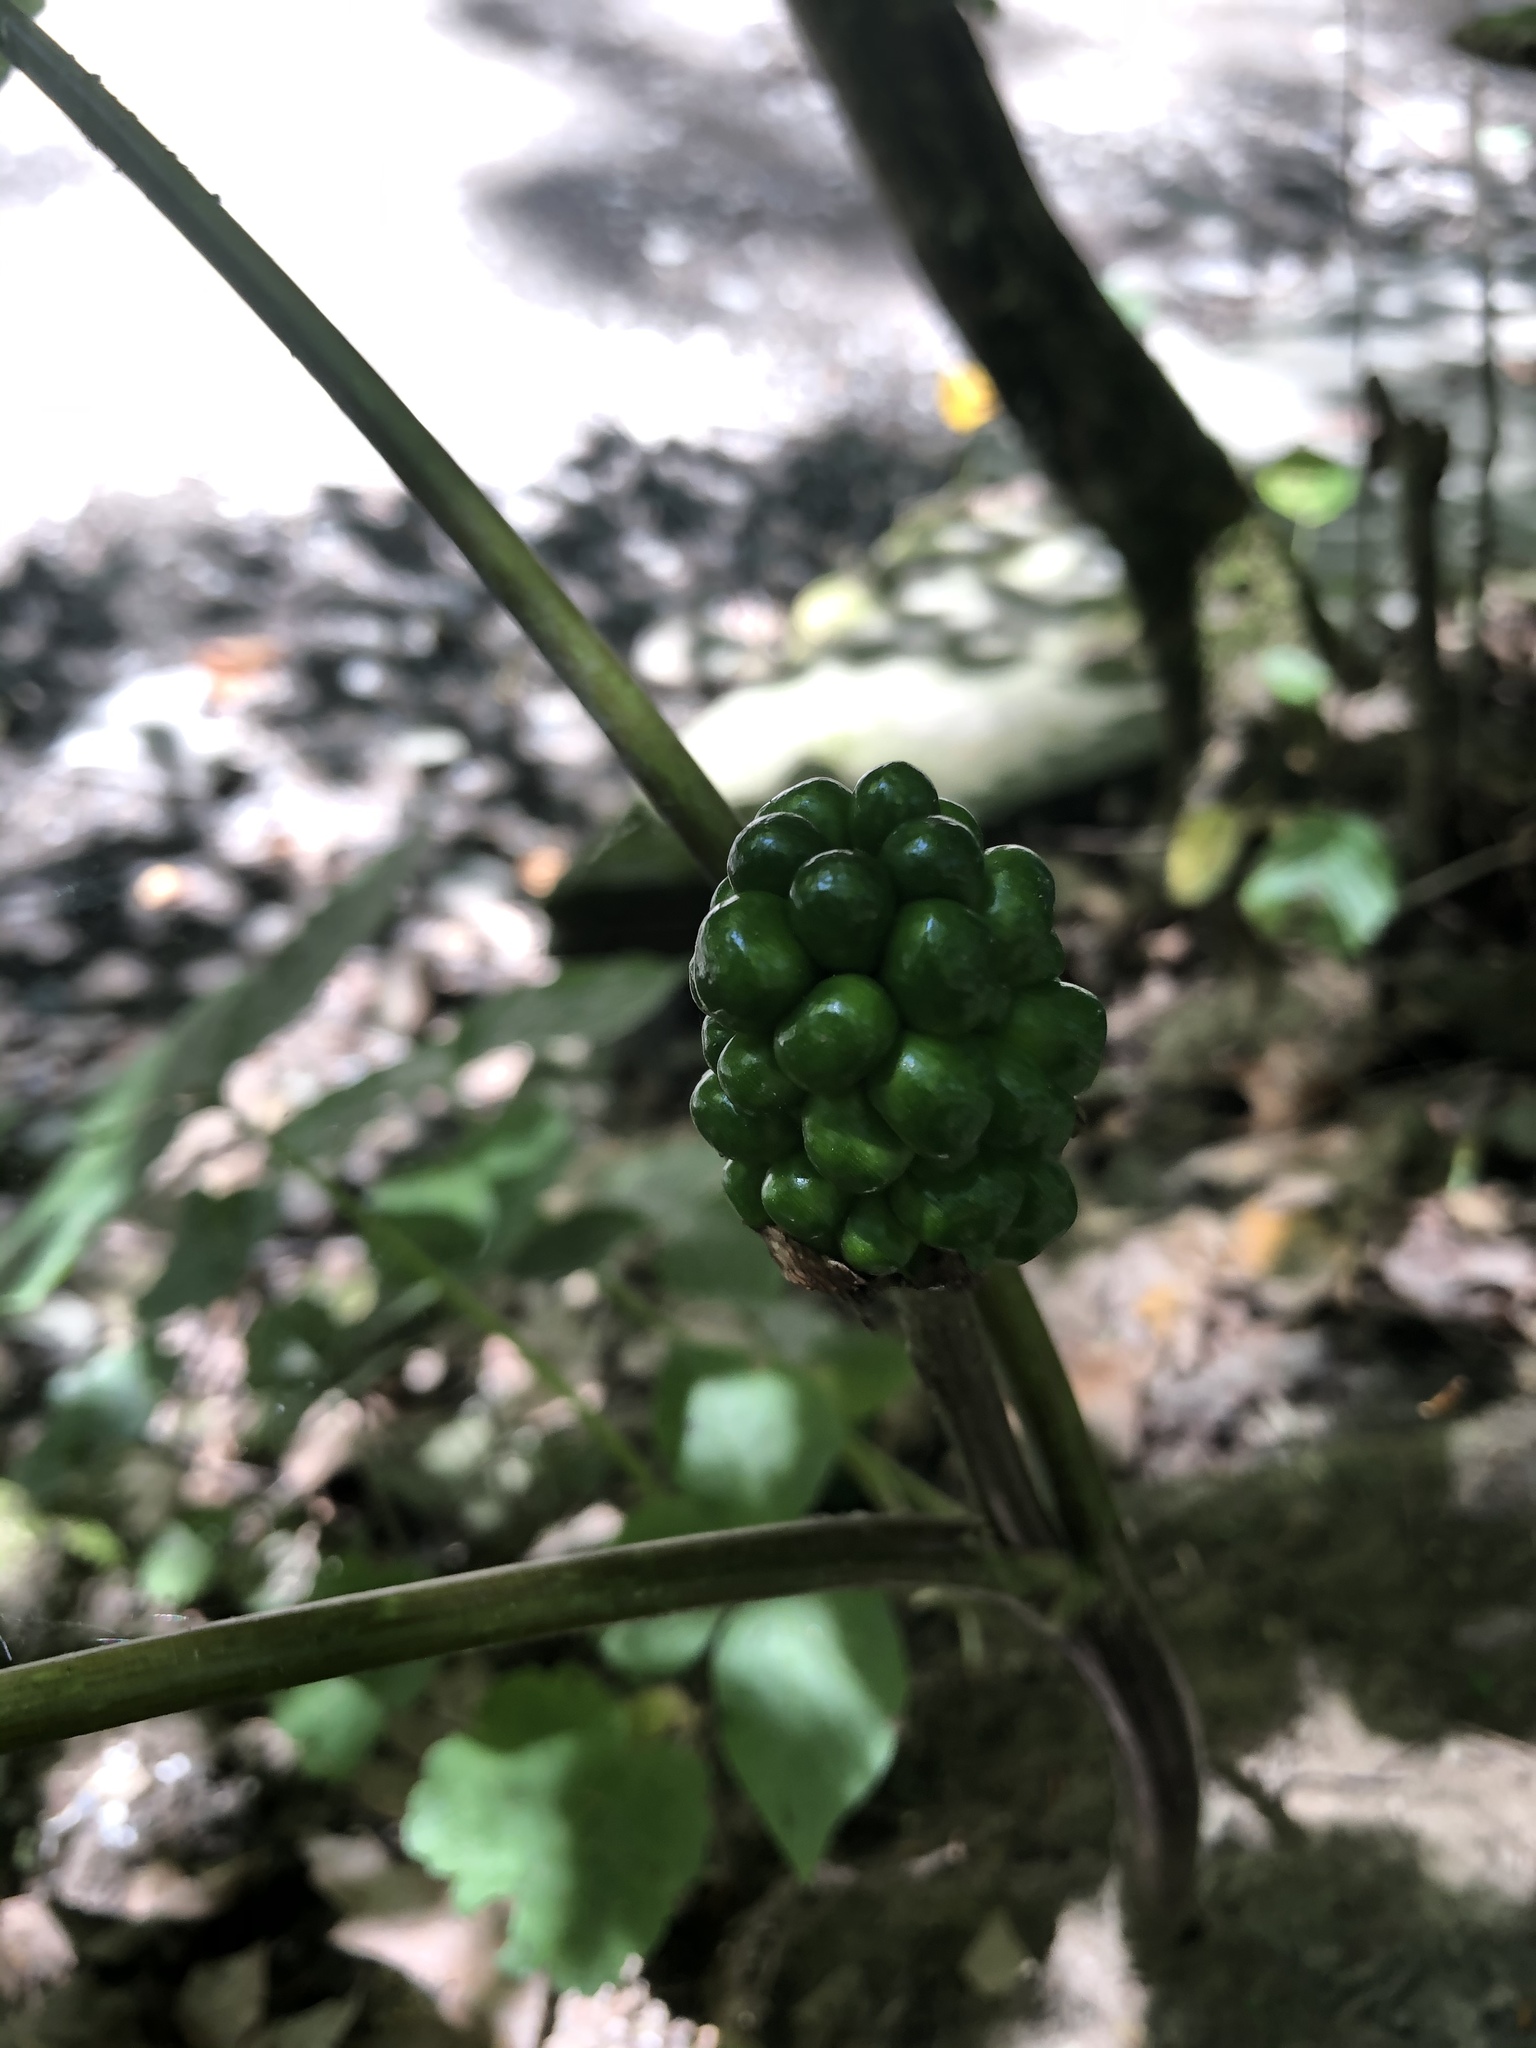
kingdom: Plantae
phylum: Tracheophyta
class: Liliopsida
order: Alismatales
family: Araceae
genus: Arisaema
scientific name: Arisaema triphyllum
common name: Jack-in-the-pulpit
